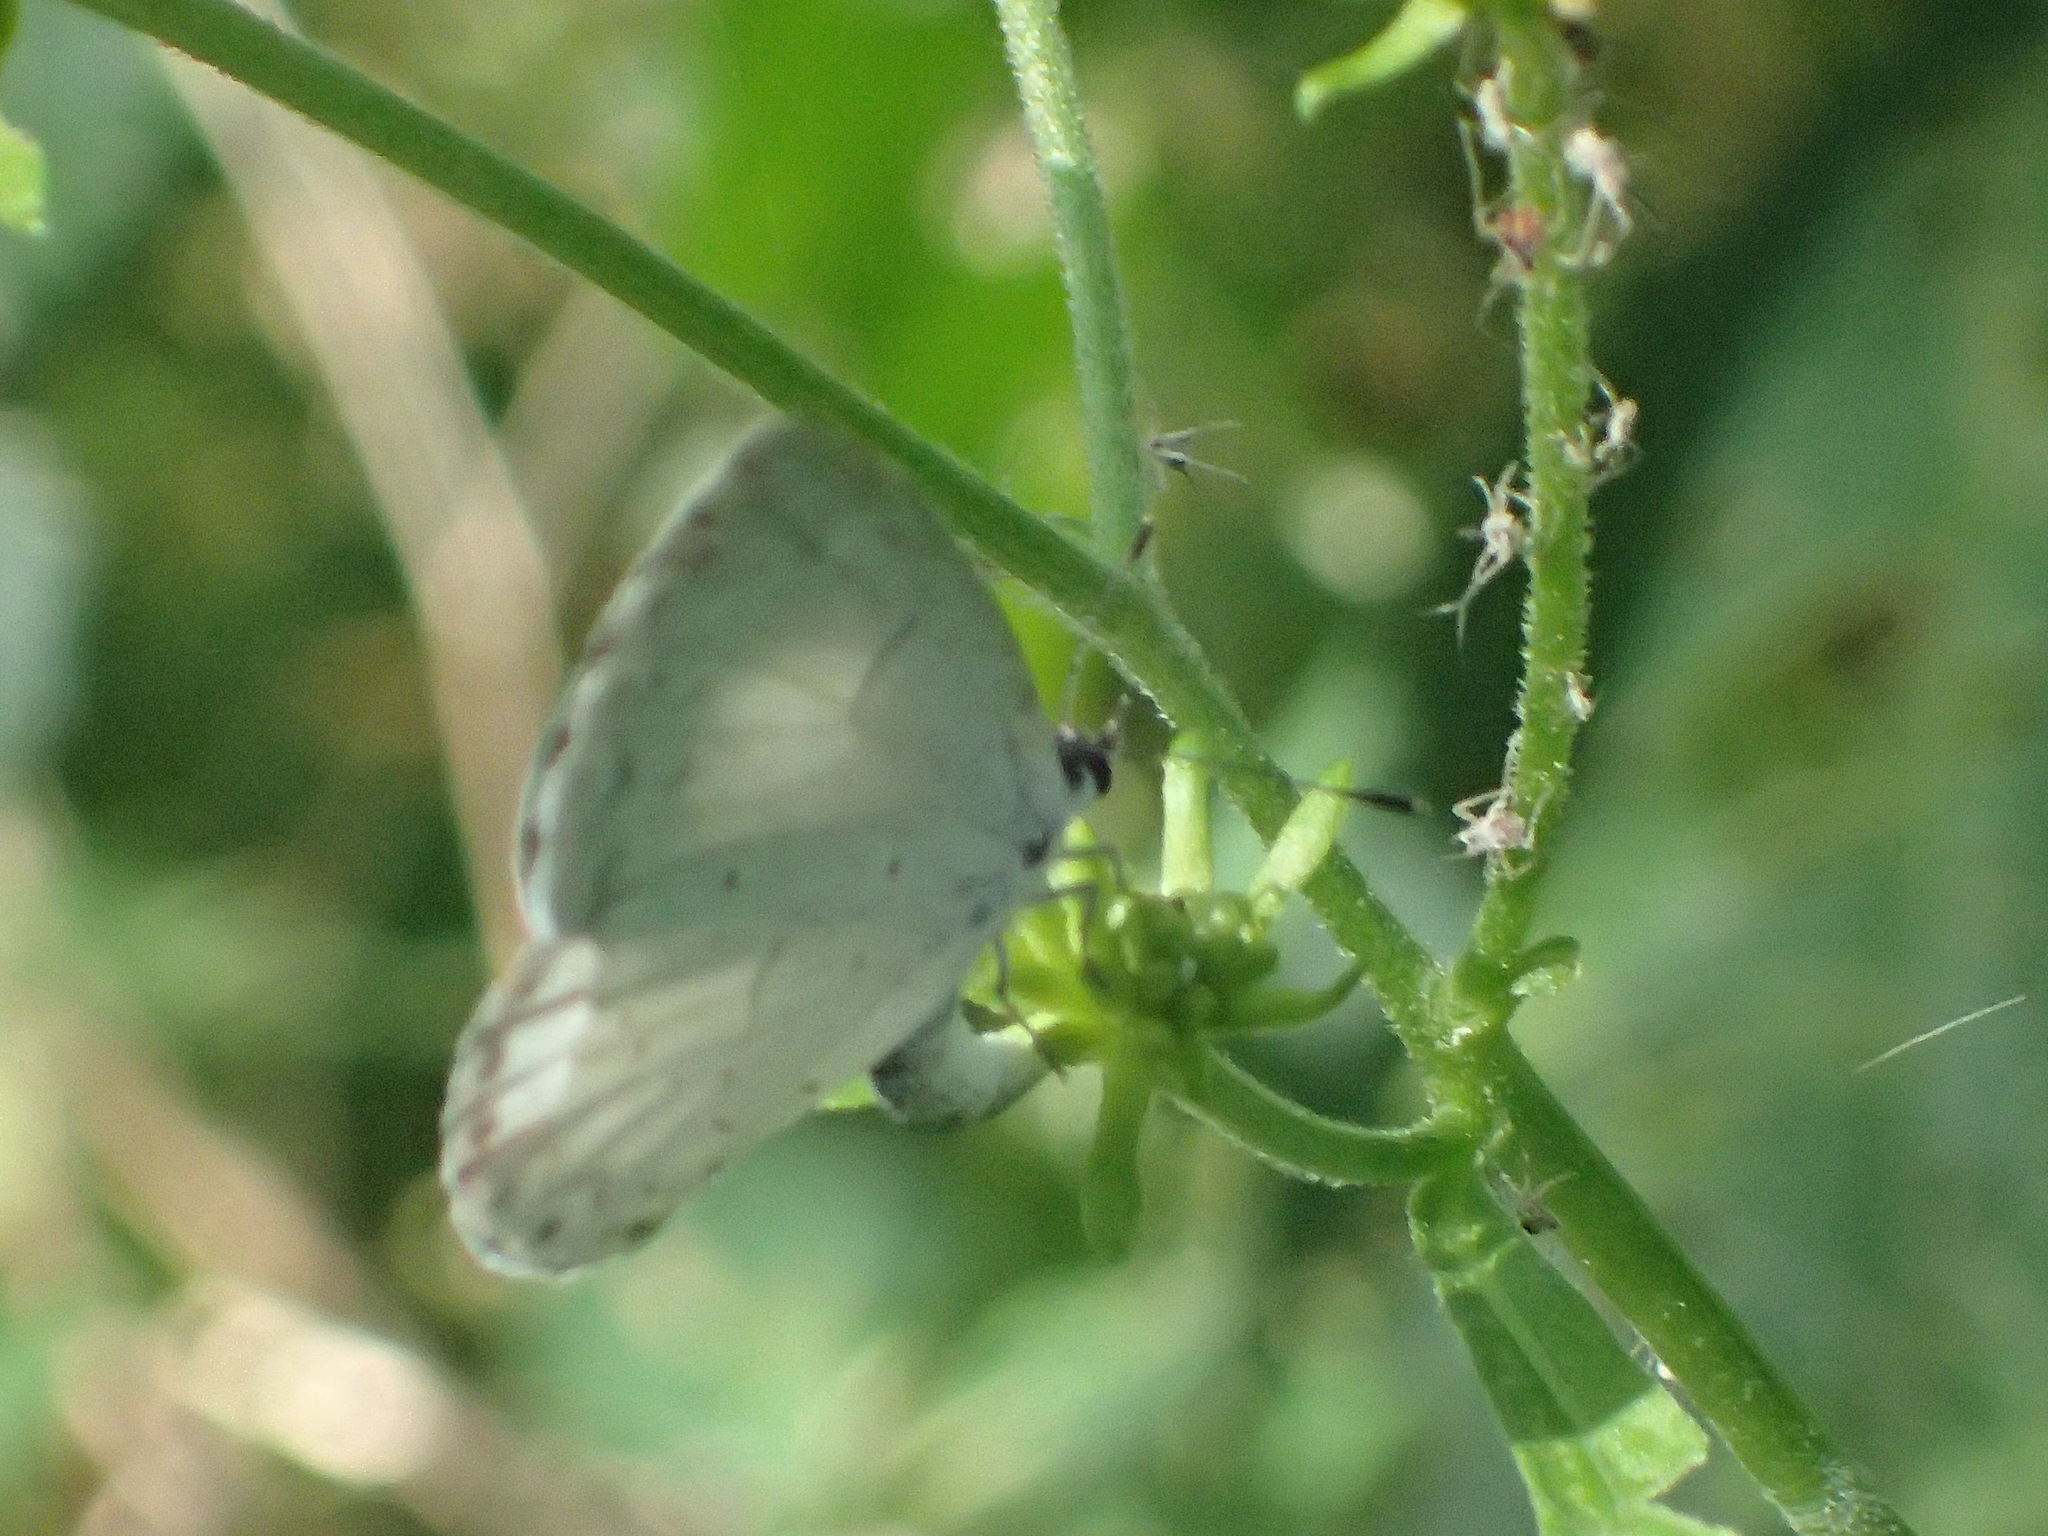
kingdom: Animalia
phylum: Arthropoda
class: Insecta
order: Lepidoptera
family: Lycaenidae
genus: Cyaniris
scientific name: Cyaniris neglecta
